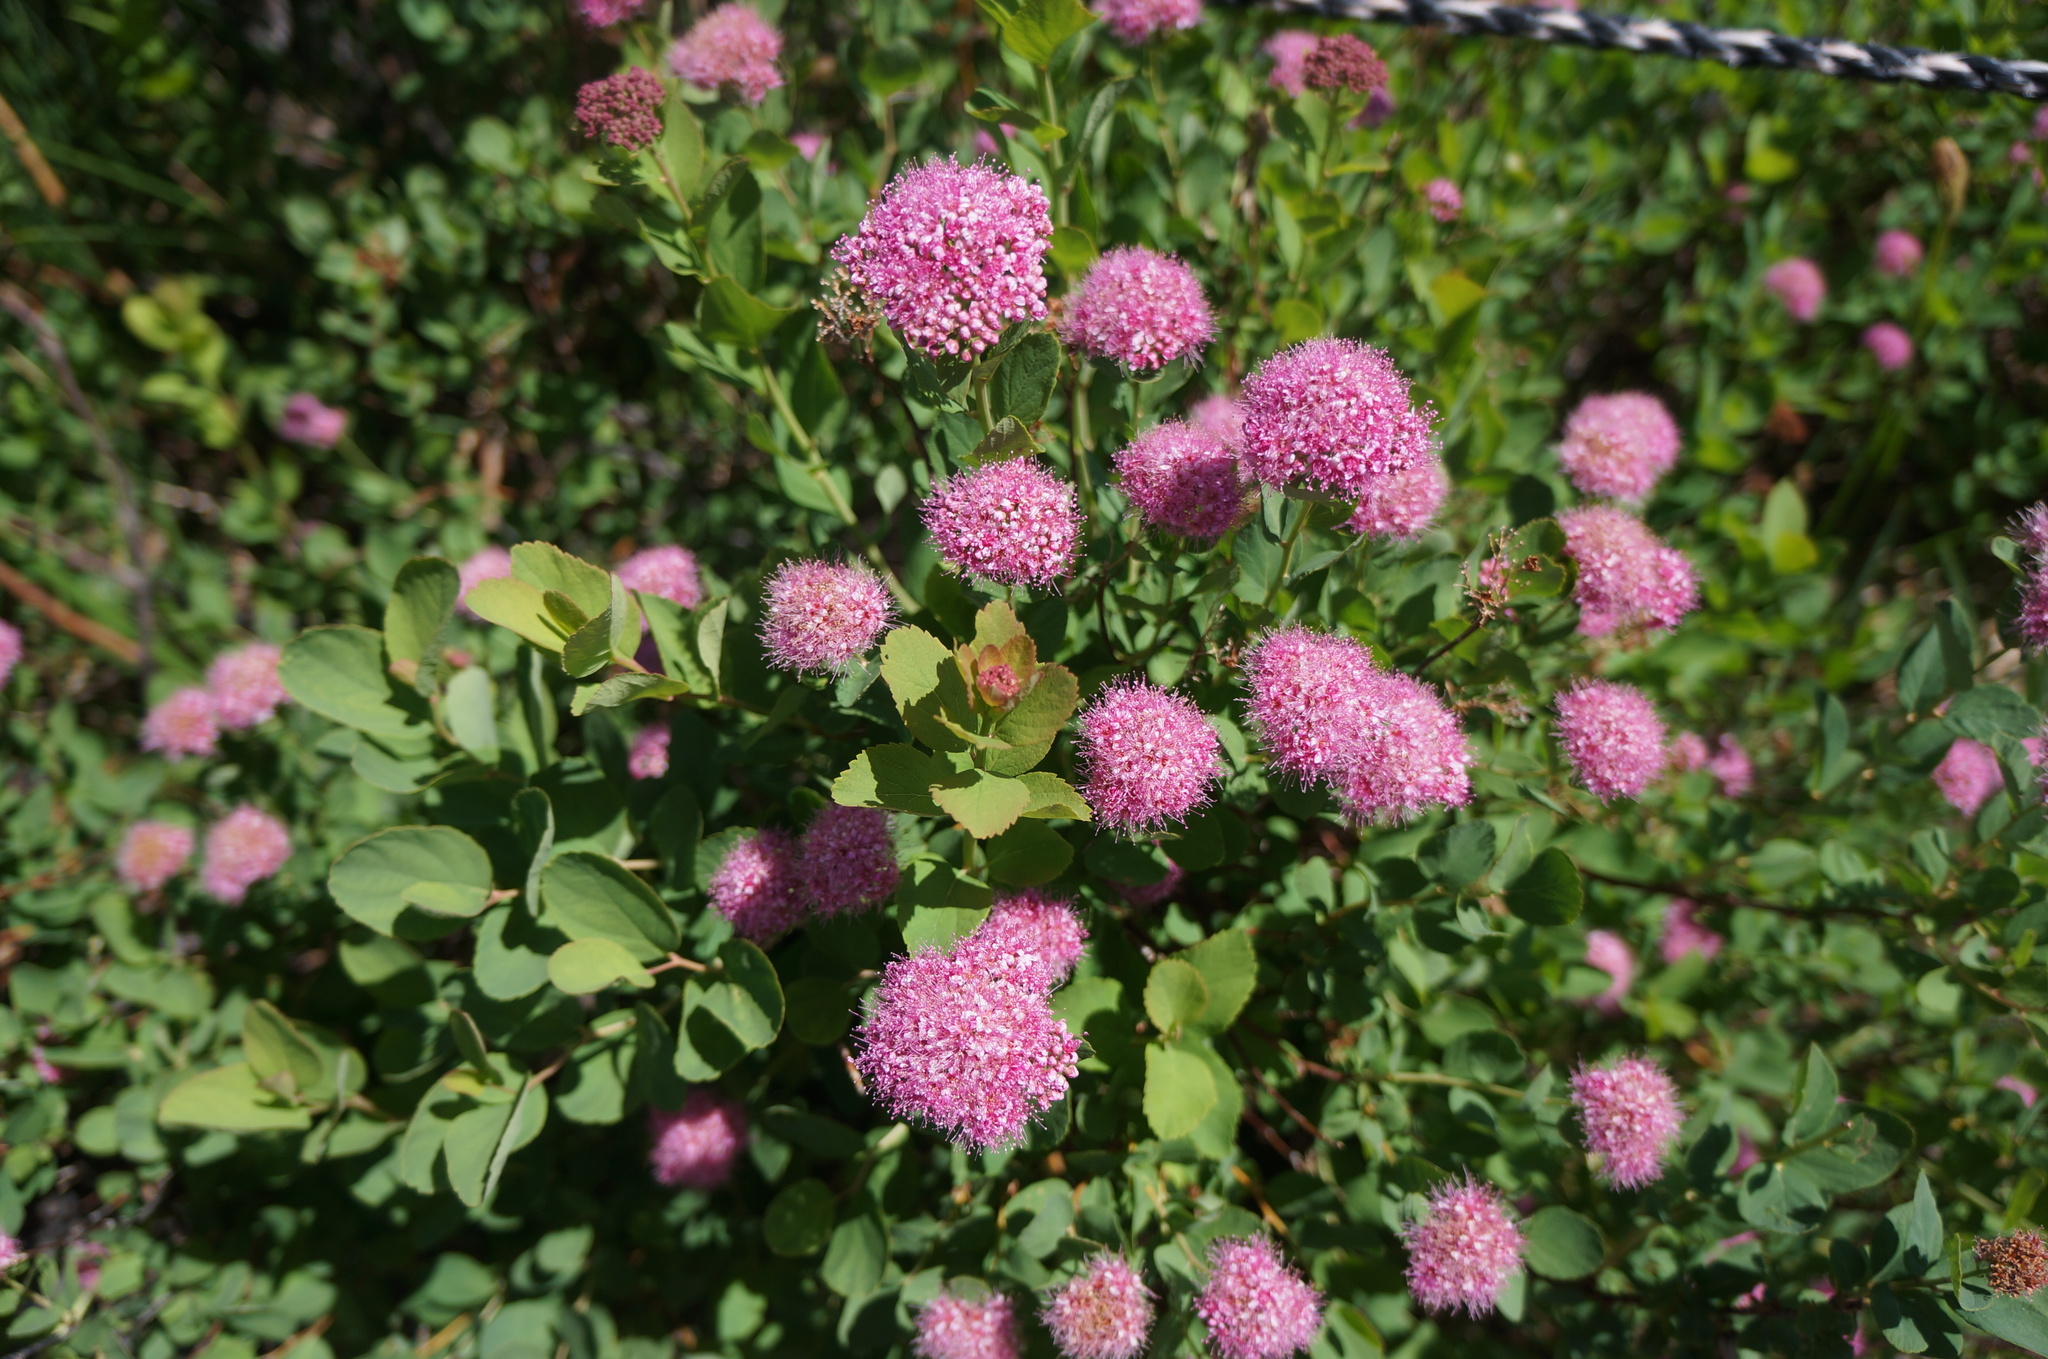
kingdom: Plantae
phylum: Tracheophyta
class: Magnoliopsida
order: Rosales
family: Rosaceae
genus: Spiraea
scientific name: Spiraea splendens
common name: Subalpine meadowsweet
